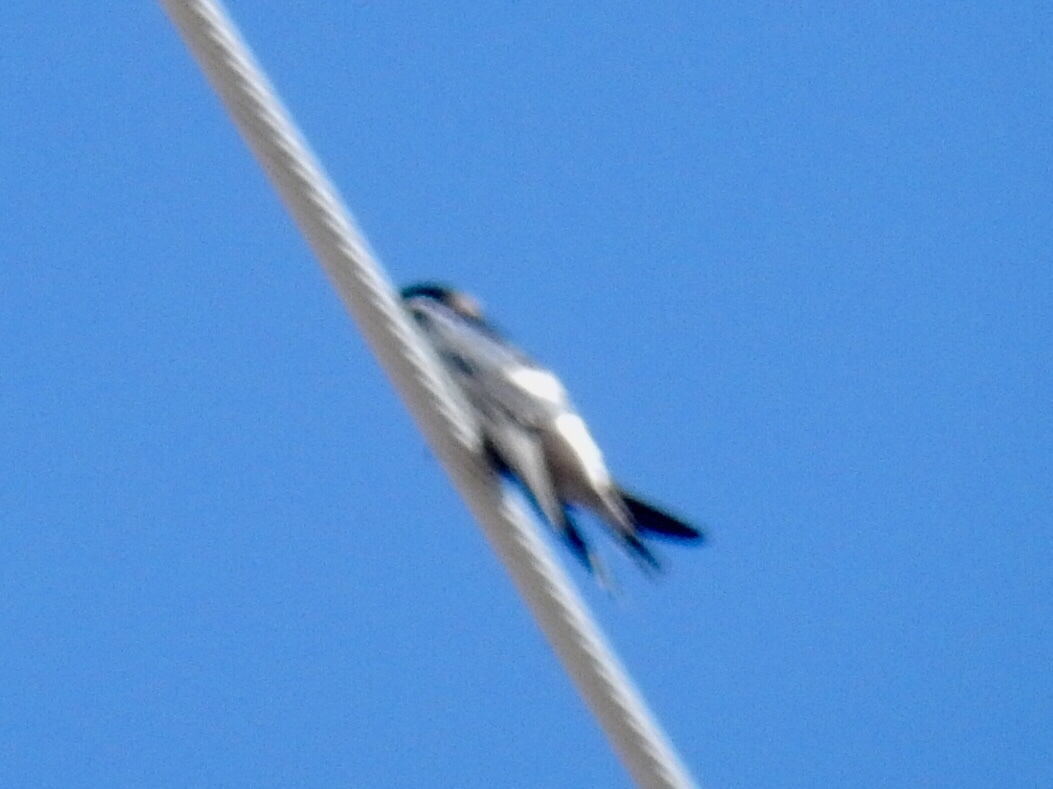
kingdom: Animalia
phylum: Chordata
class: Aves
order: Passeriformes
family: Hirundinidae
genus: Hirundo
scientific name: Hirundo rustica
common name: Barn swallow
